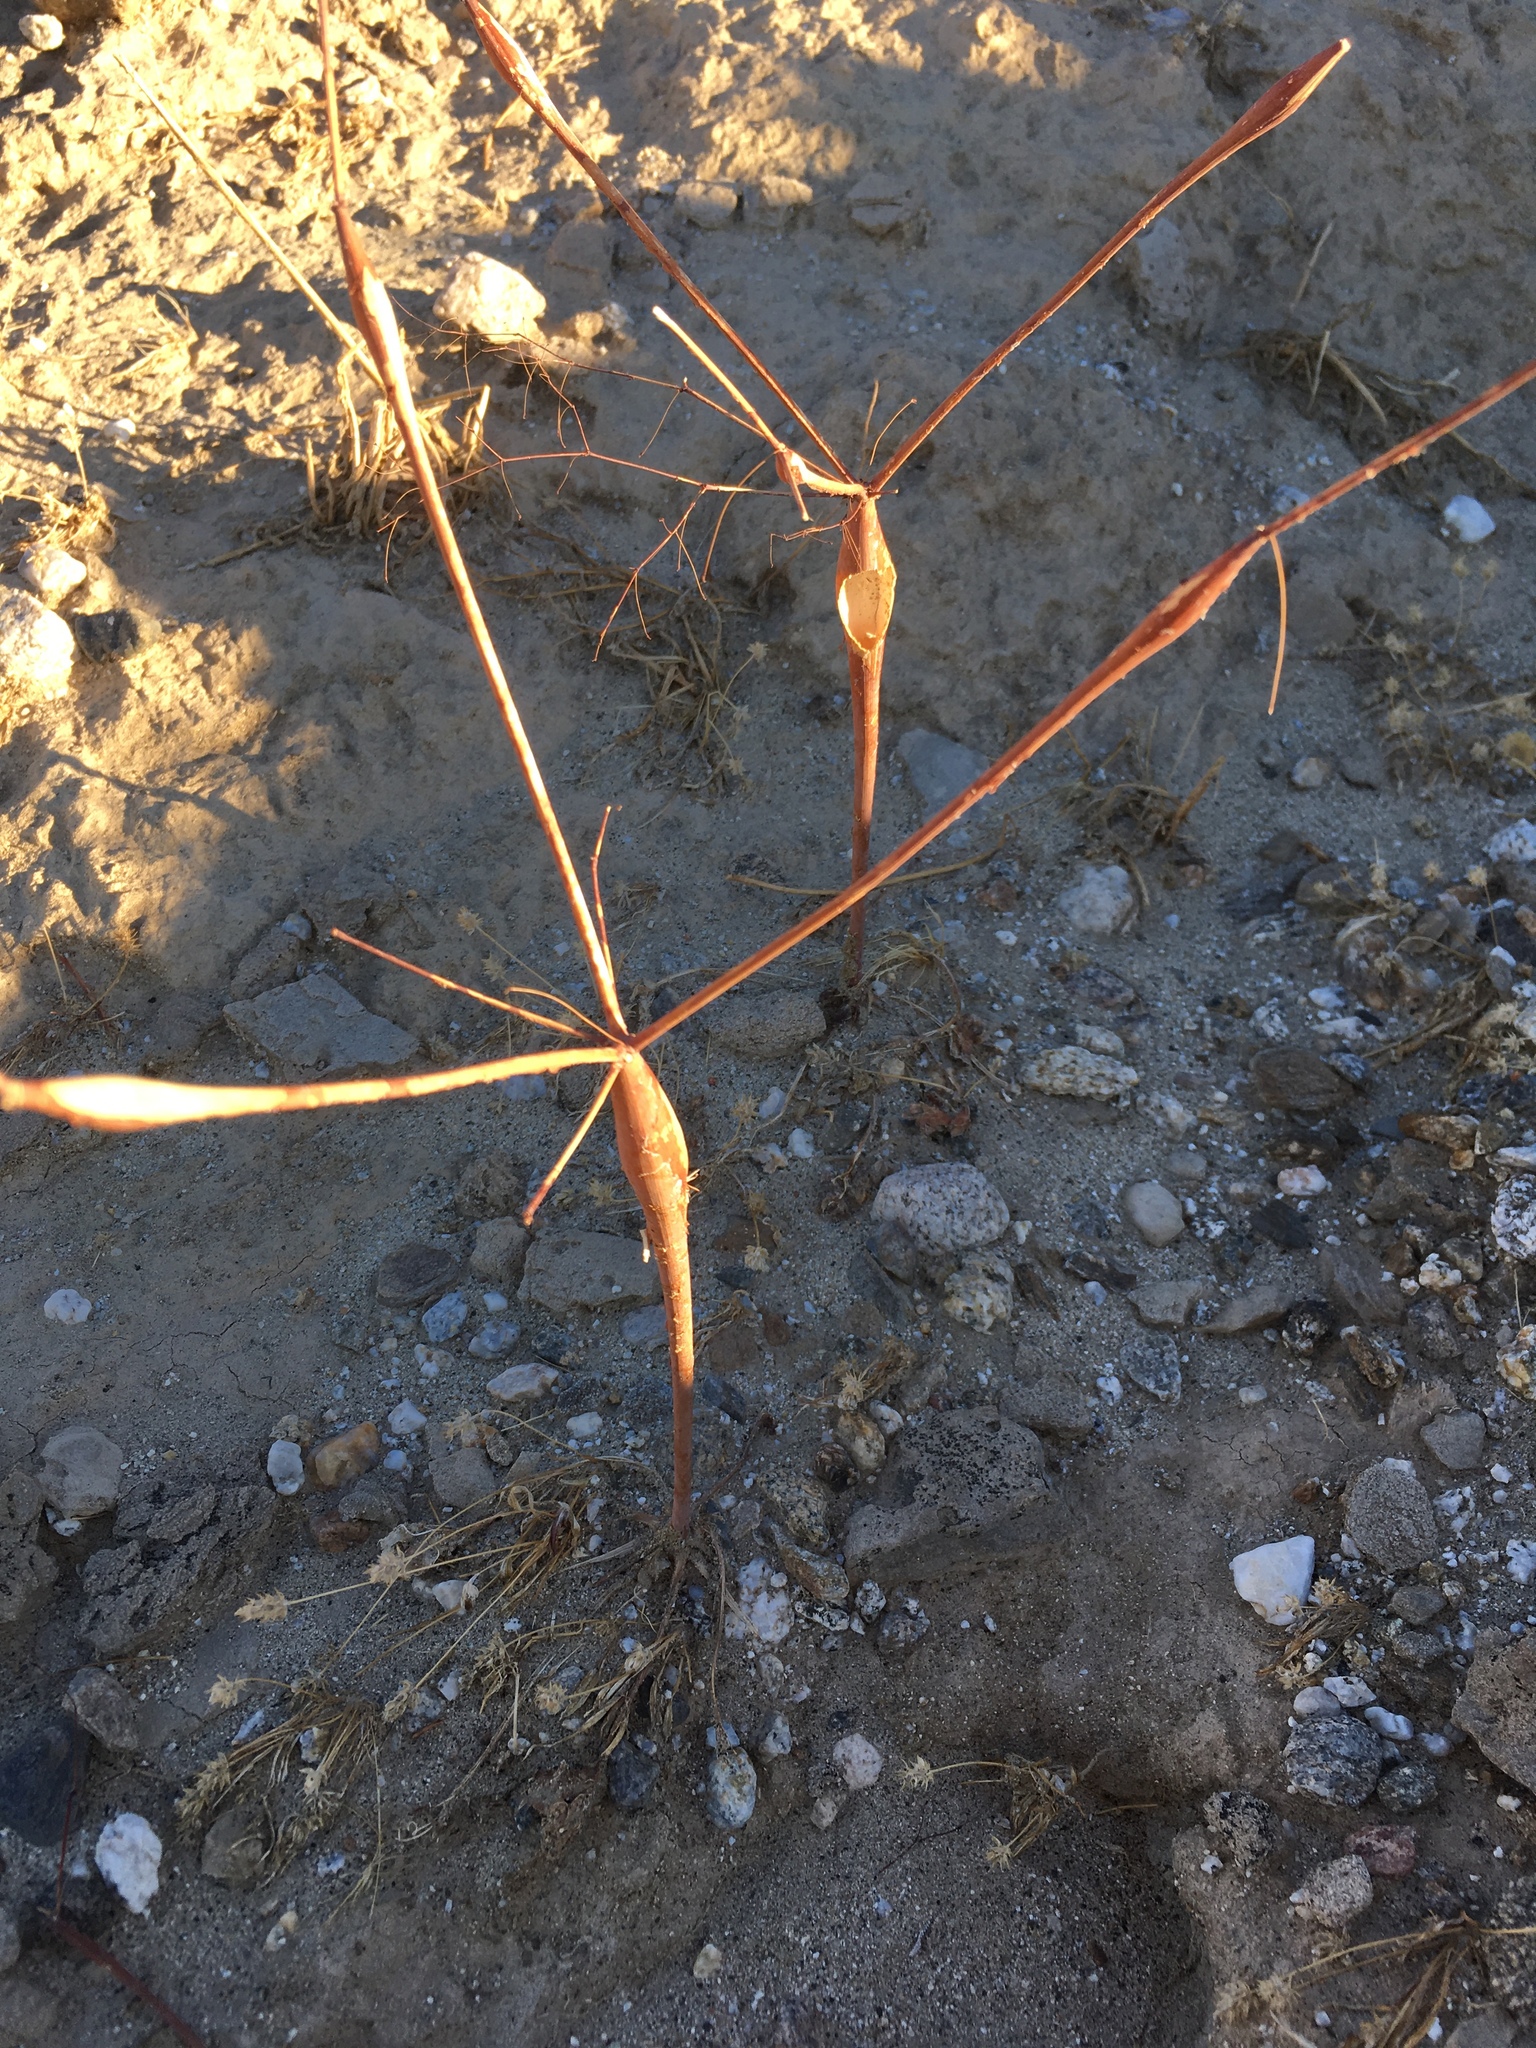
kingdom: Plantae
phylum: Tracheophyta
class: Magnoliopsida
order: Caryophyllales
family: Polygonaceae
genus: Eriogonum
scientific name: Eriogonum trichopes
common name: Little desert trumpet
